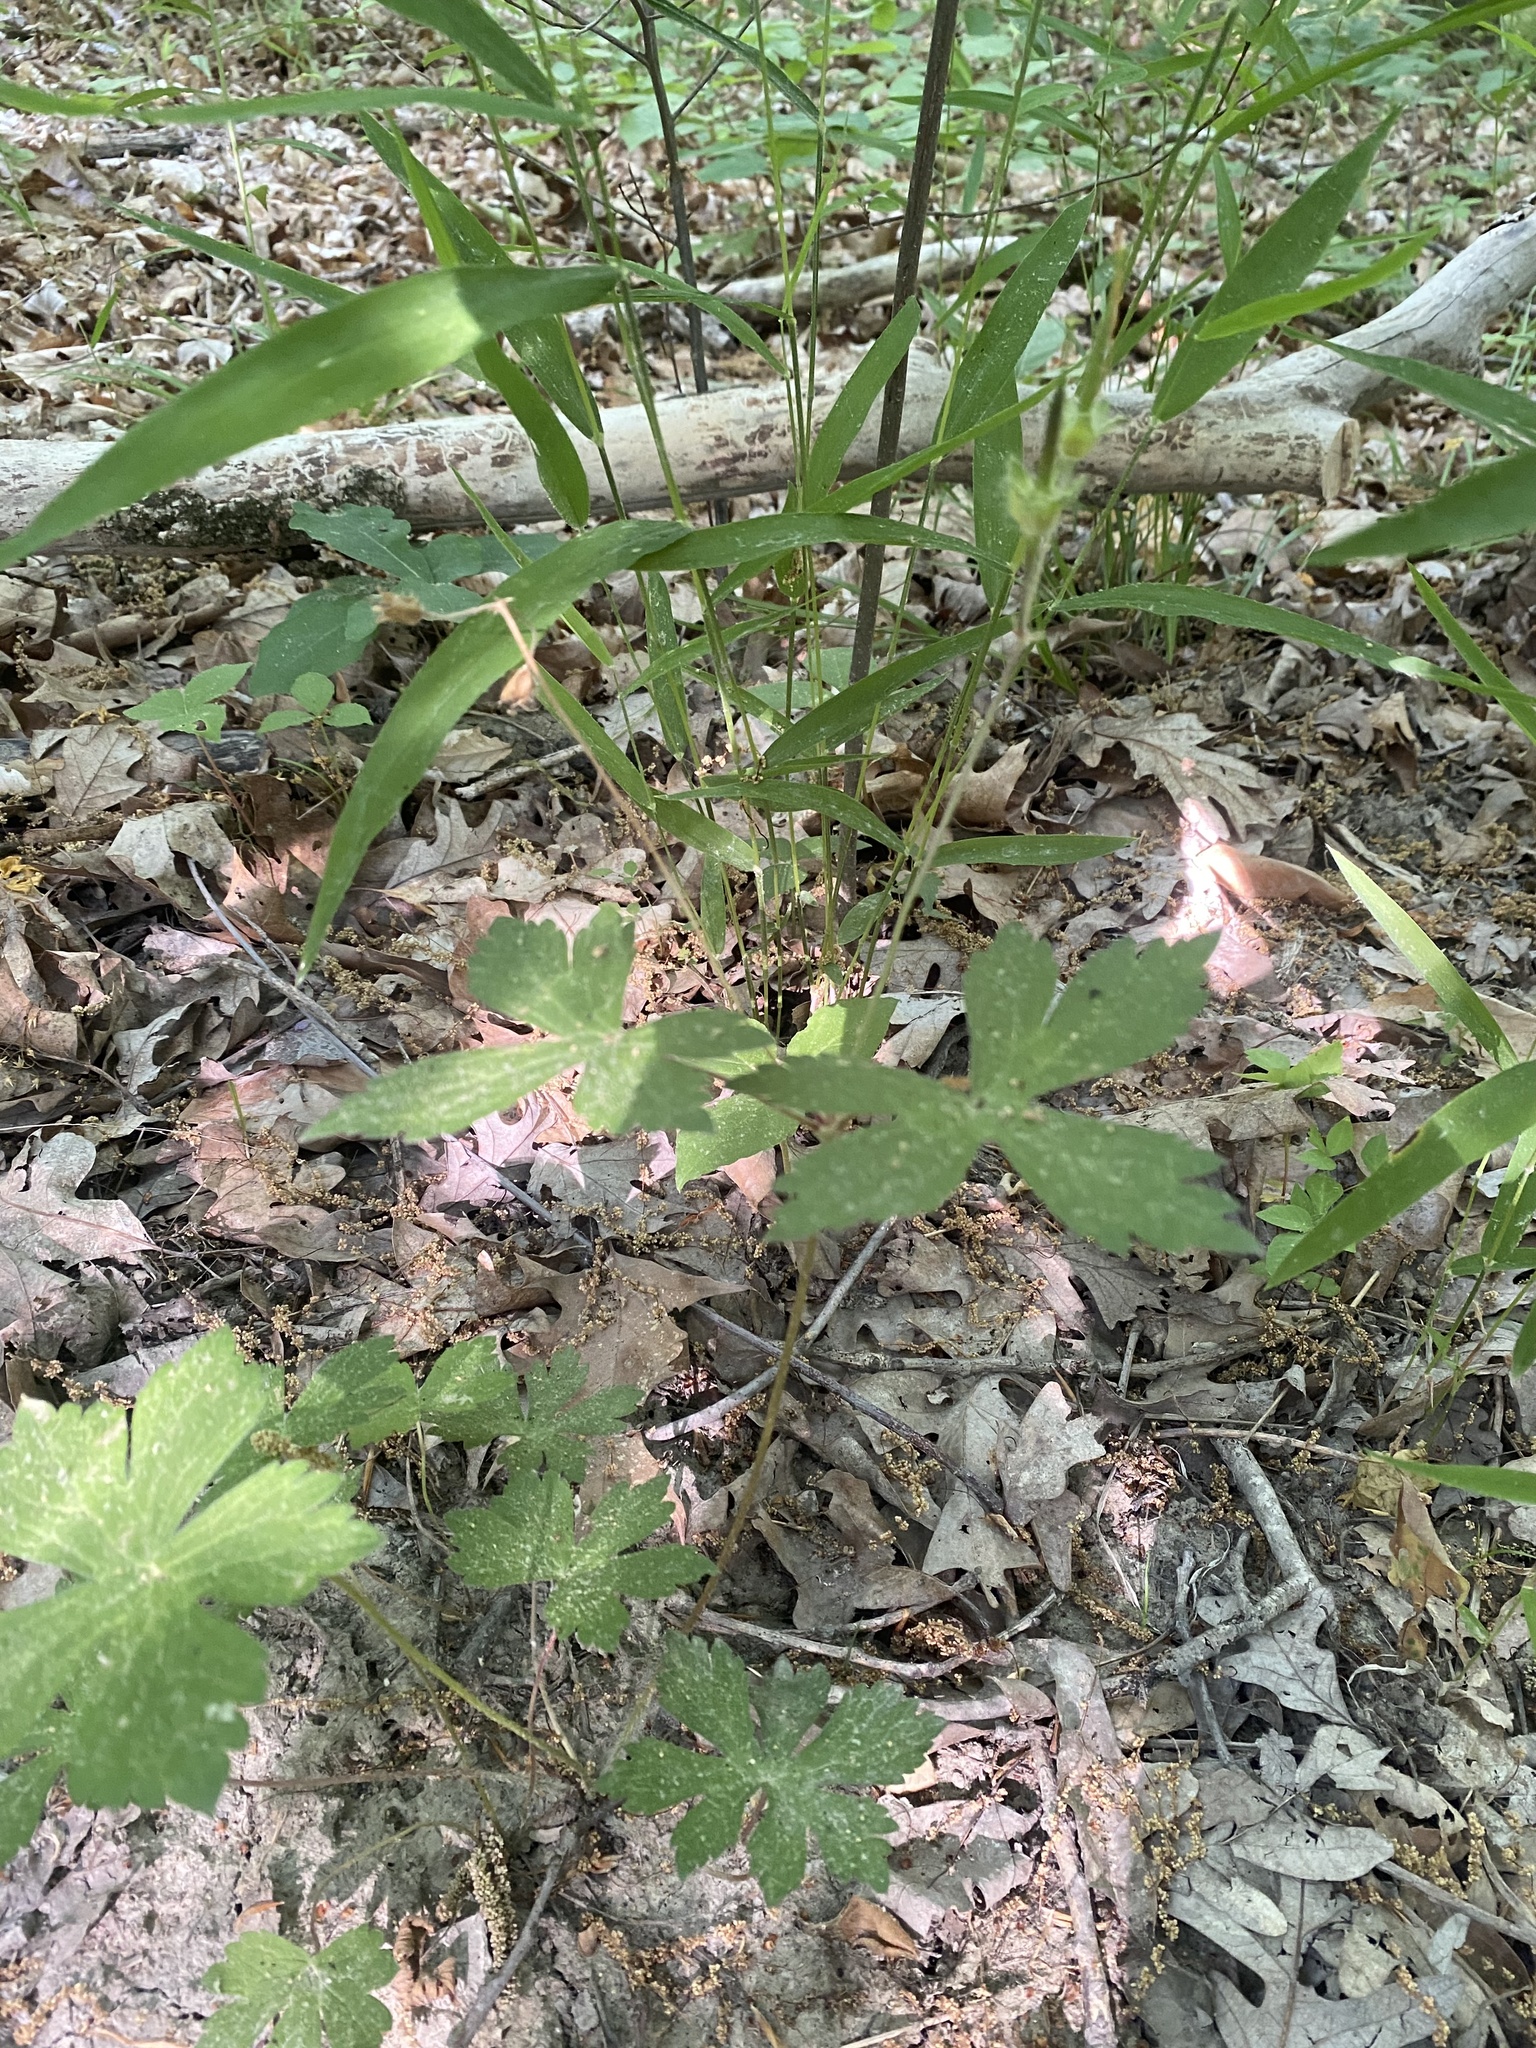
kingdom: Plantae
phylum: Tracheophyta
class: Magnoliopsida
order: Geraniales
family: Geraniaceae
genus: Geranium
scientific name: Geranium maculatum
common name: Spotted geranium
